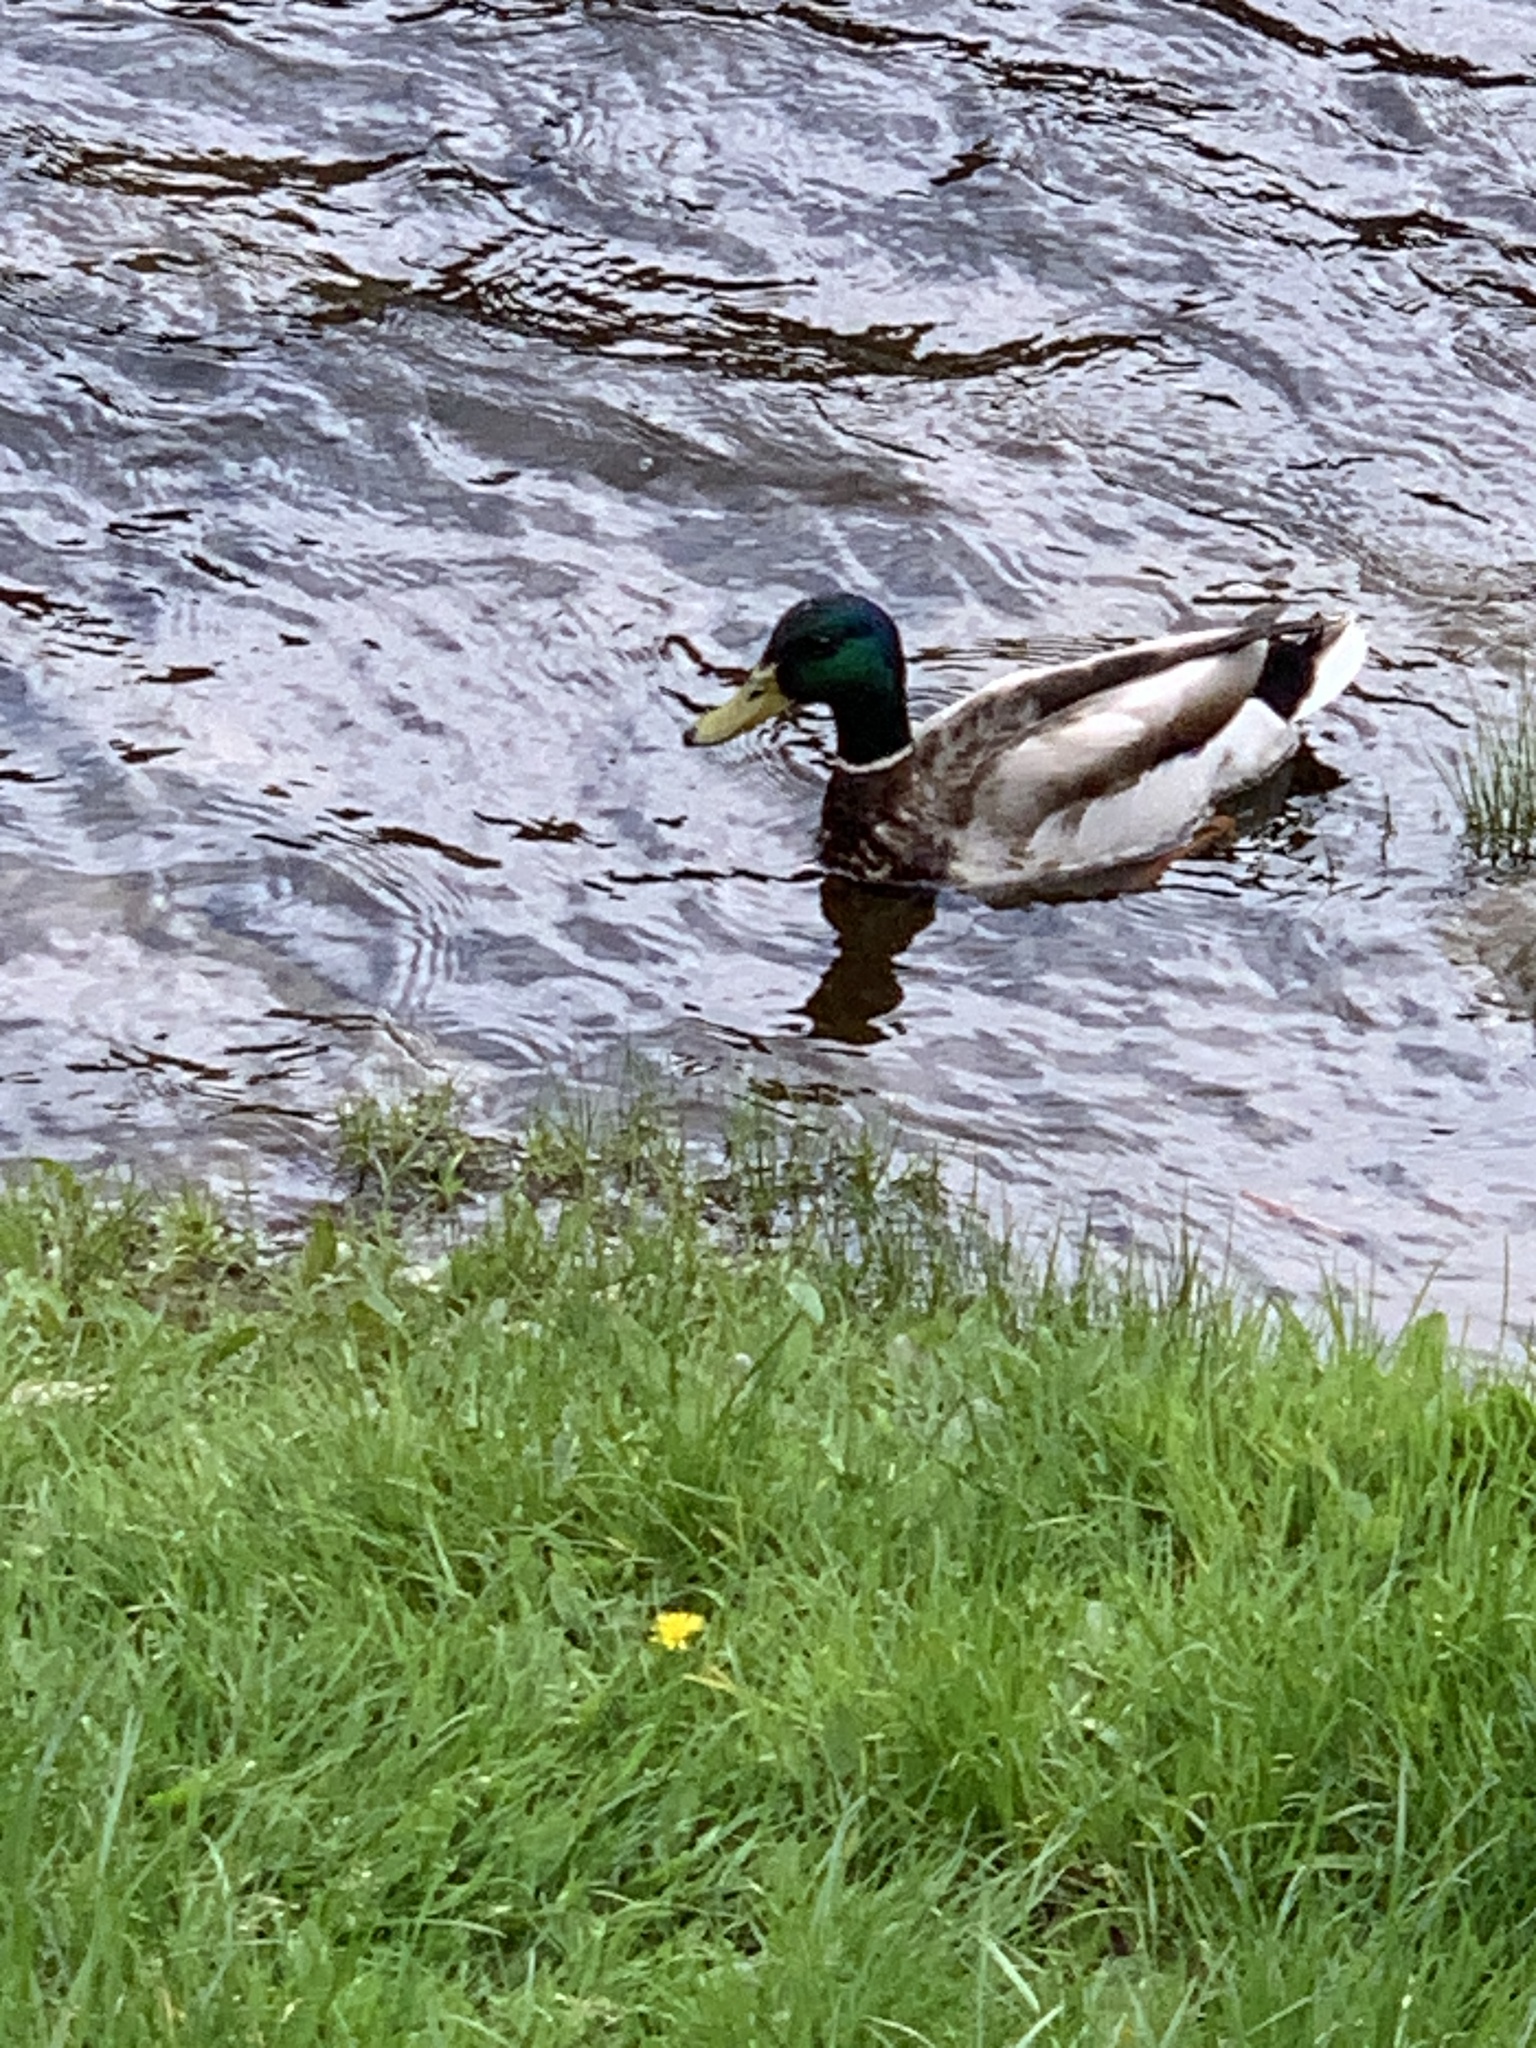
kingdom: Animalia
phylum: Chordata
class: Aves
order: Anseriformes
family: Anatidae
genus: Anas
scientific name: Anas platyrhynchos
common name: Mallard
